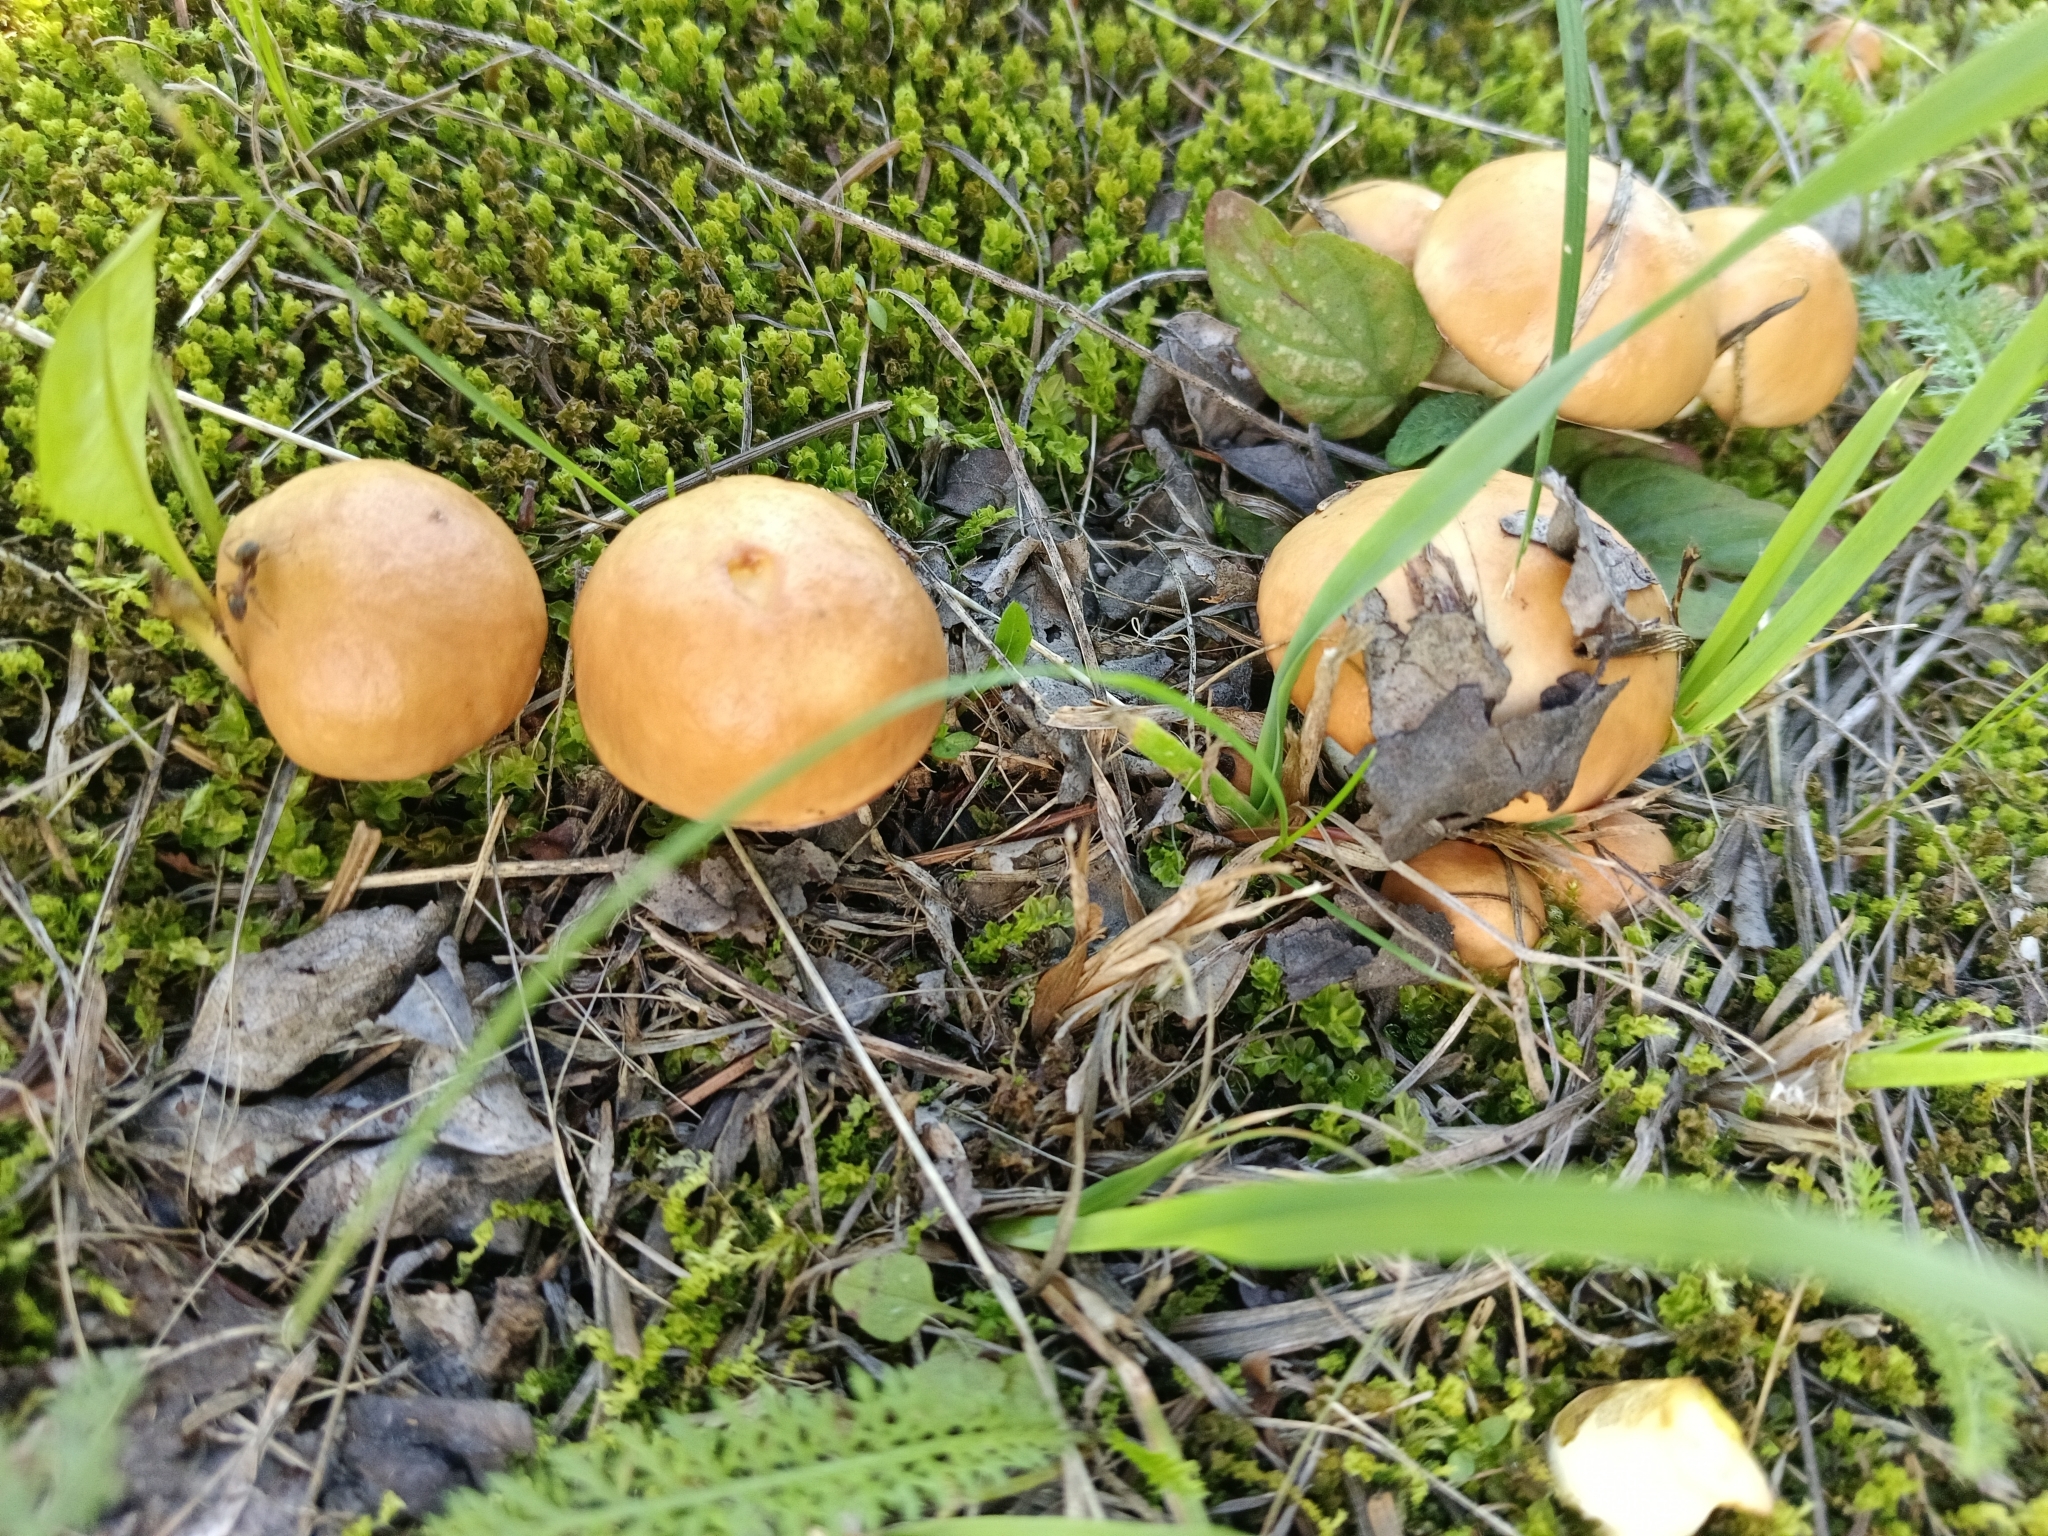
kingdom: Fungi
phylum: Basidiomycota
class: Agaricomycetes
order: Boletales
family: Suillaceae
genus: Suillus
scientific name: Suillus granulatus
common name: Weeping bolete
